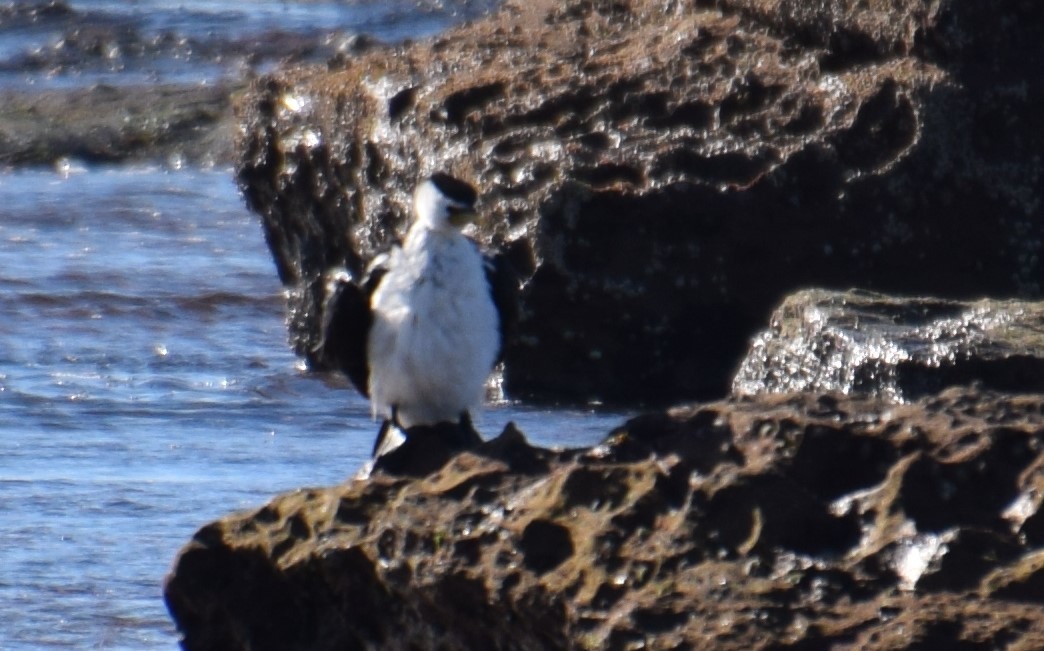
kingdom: Animalia
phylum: Chordata
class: Aves
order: Suliformes
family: Phalacrocoracidae
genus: Microcarbo
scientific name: Microcarbo melanoleucos
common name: Little pied cormorant
